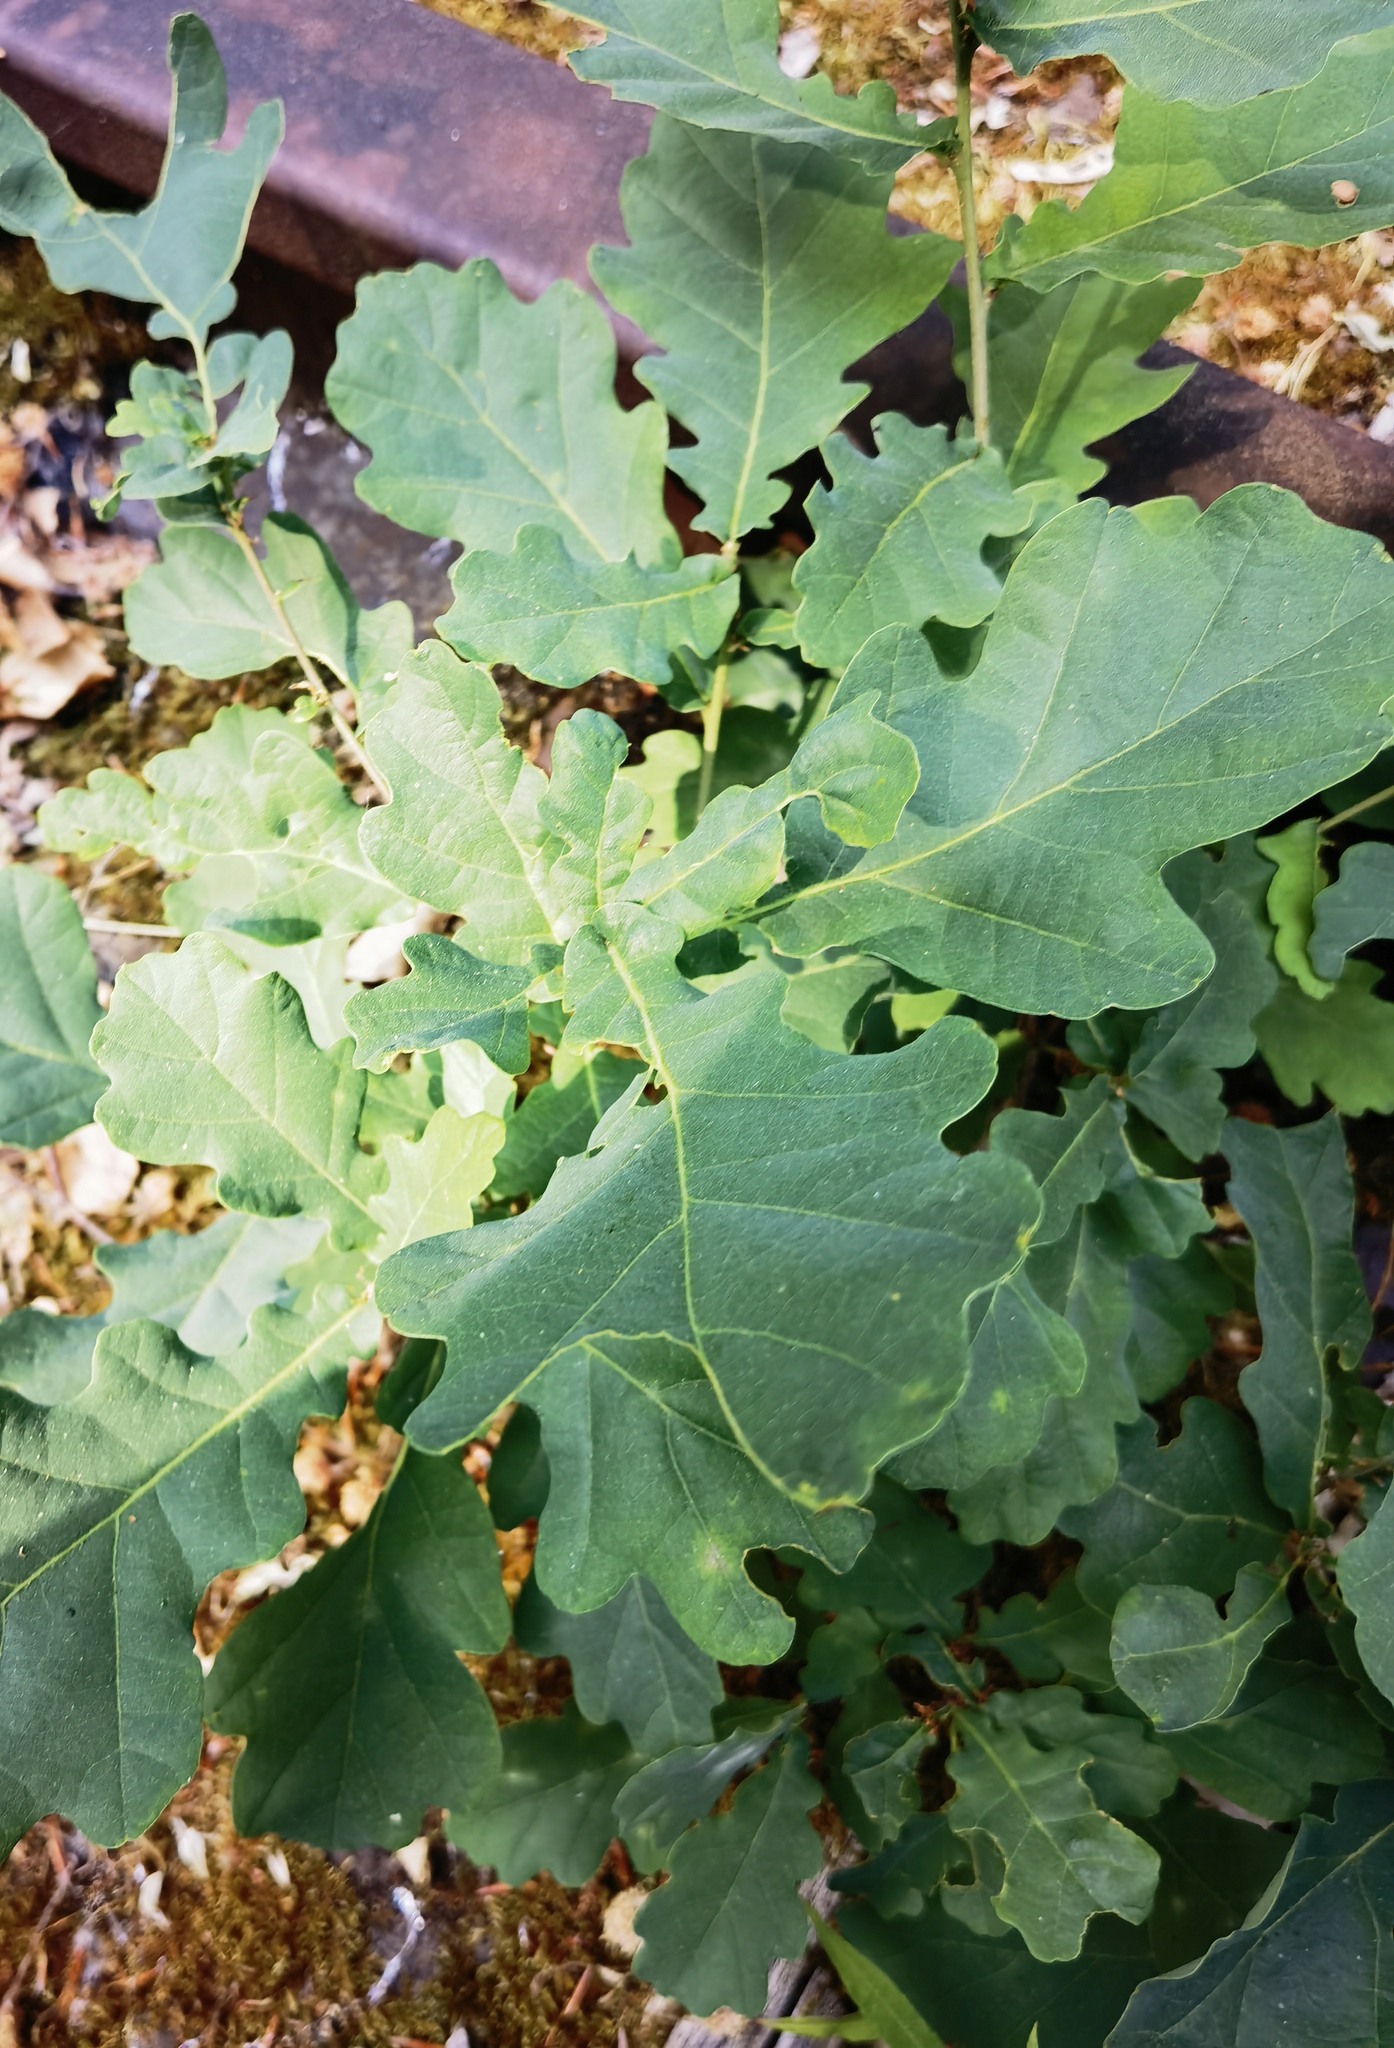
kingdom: Plantae
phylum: Tracheophyta
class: Magnoliopsida
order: Fagales
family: Fagaceae
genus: Quercus
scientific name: Quercus robur
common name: Pedunculate oak
